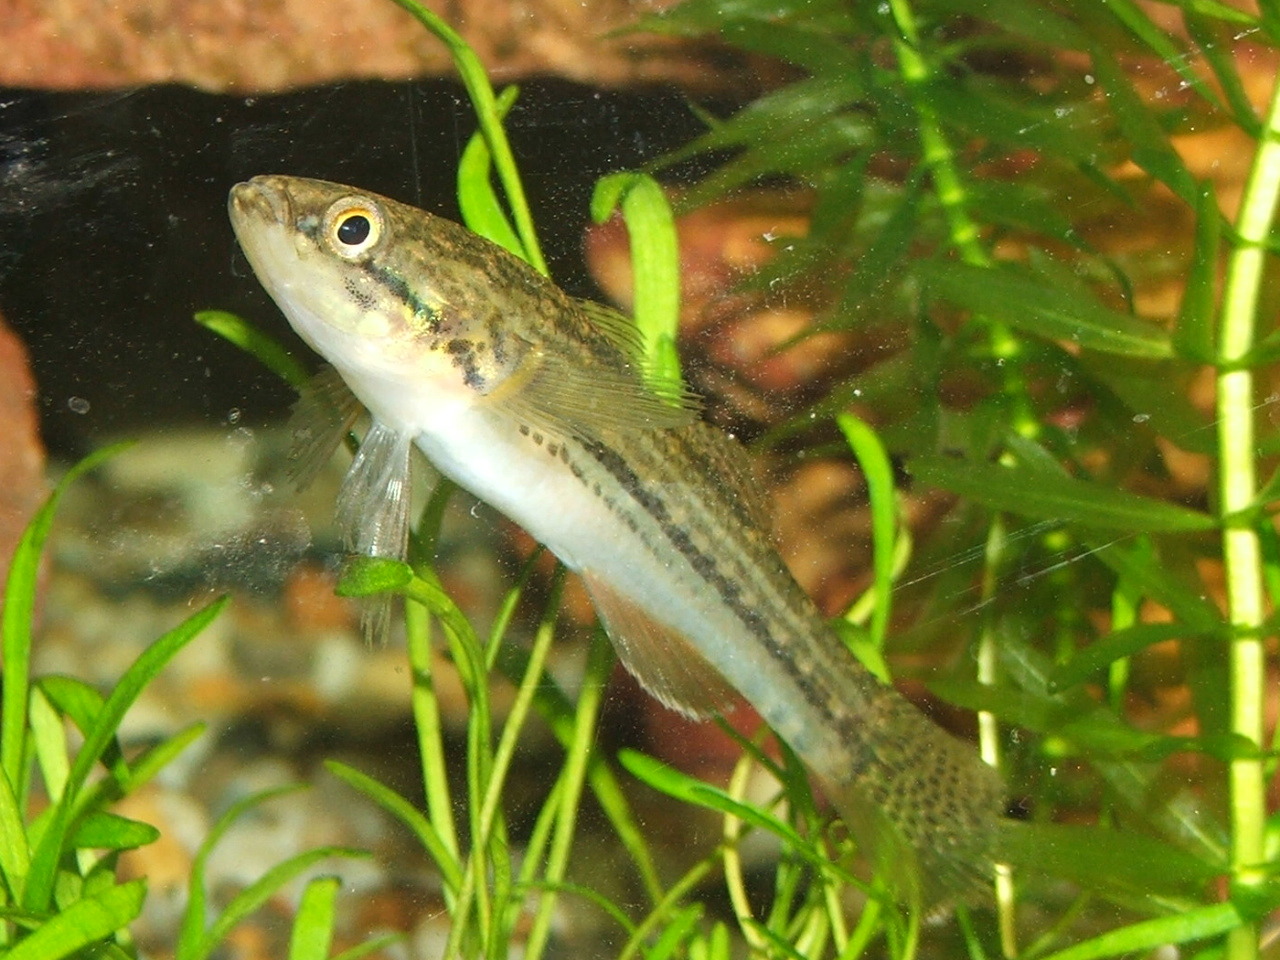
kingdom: Animalia
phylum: Chordata
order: Perciformes
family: Eleotridae
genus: Gobiomorphus
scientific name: Gobiomorphus australis
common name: Striped gudgeon
